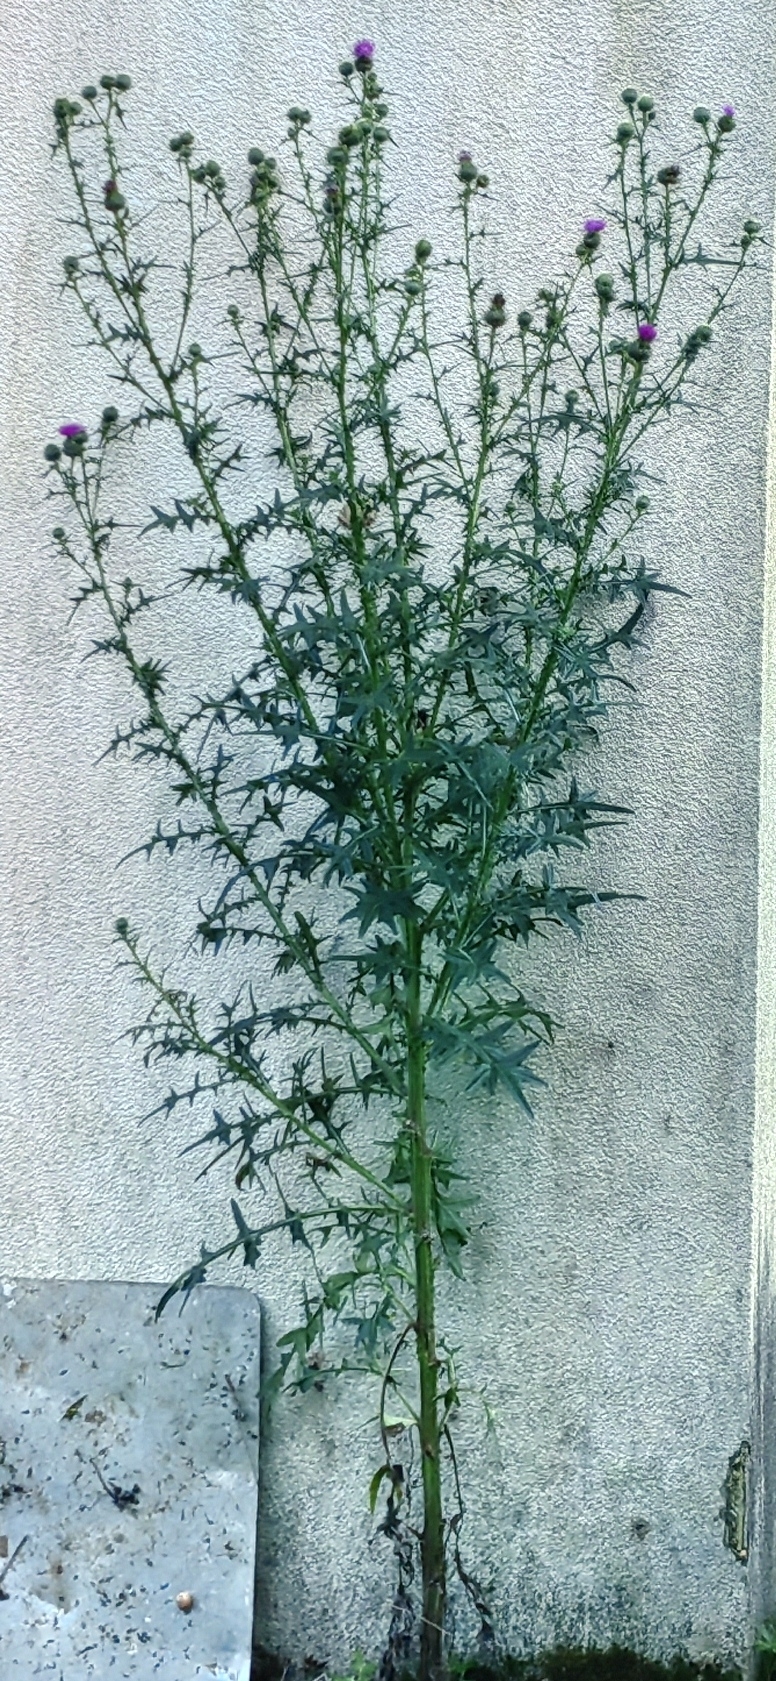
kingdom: Plantae
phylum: Tracheophyta
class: Magnoliopsida
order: Asterales
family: Asteraceae
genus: Cirsium
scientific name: Cirsium vulgare
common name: Bull thistle
